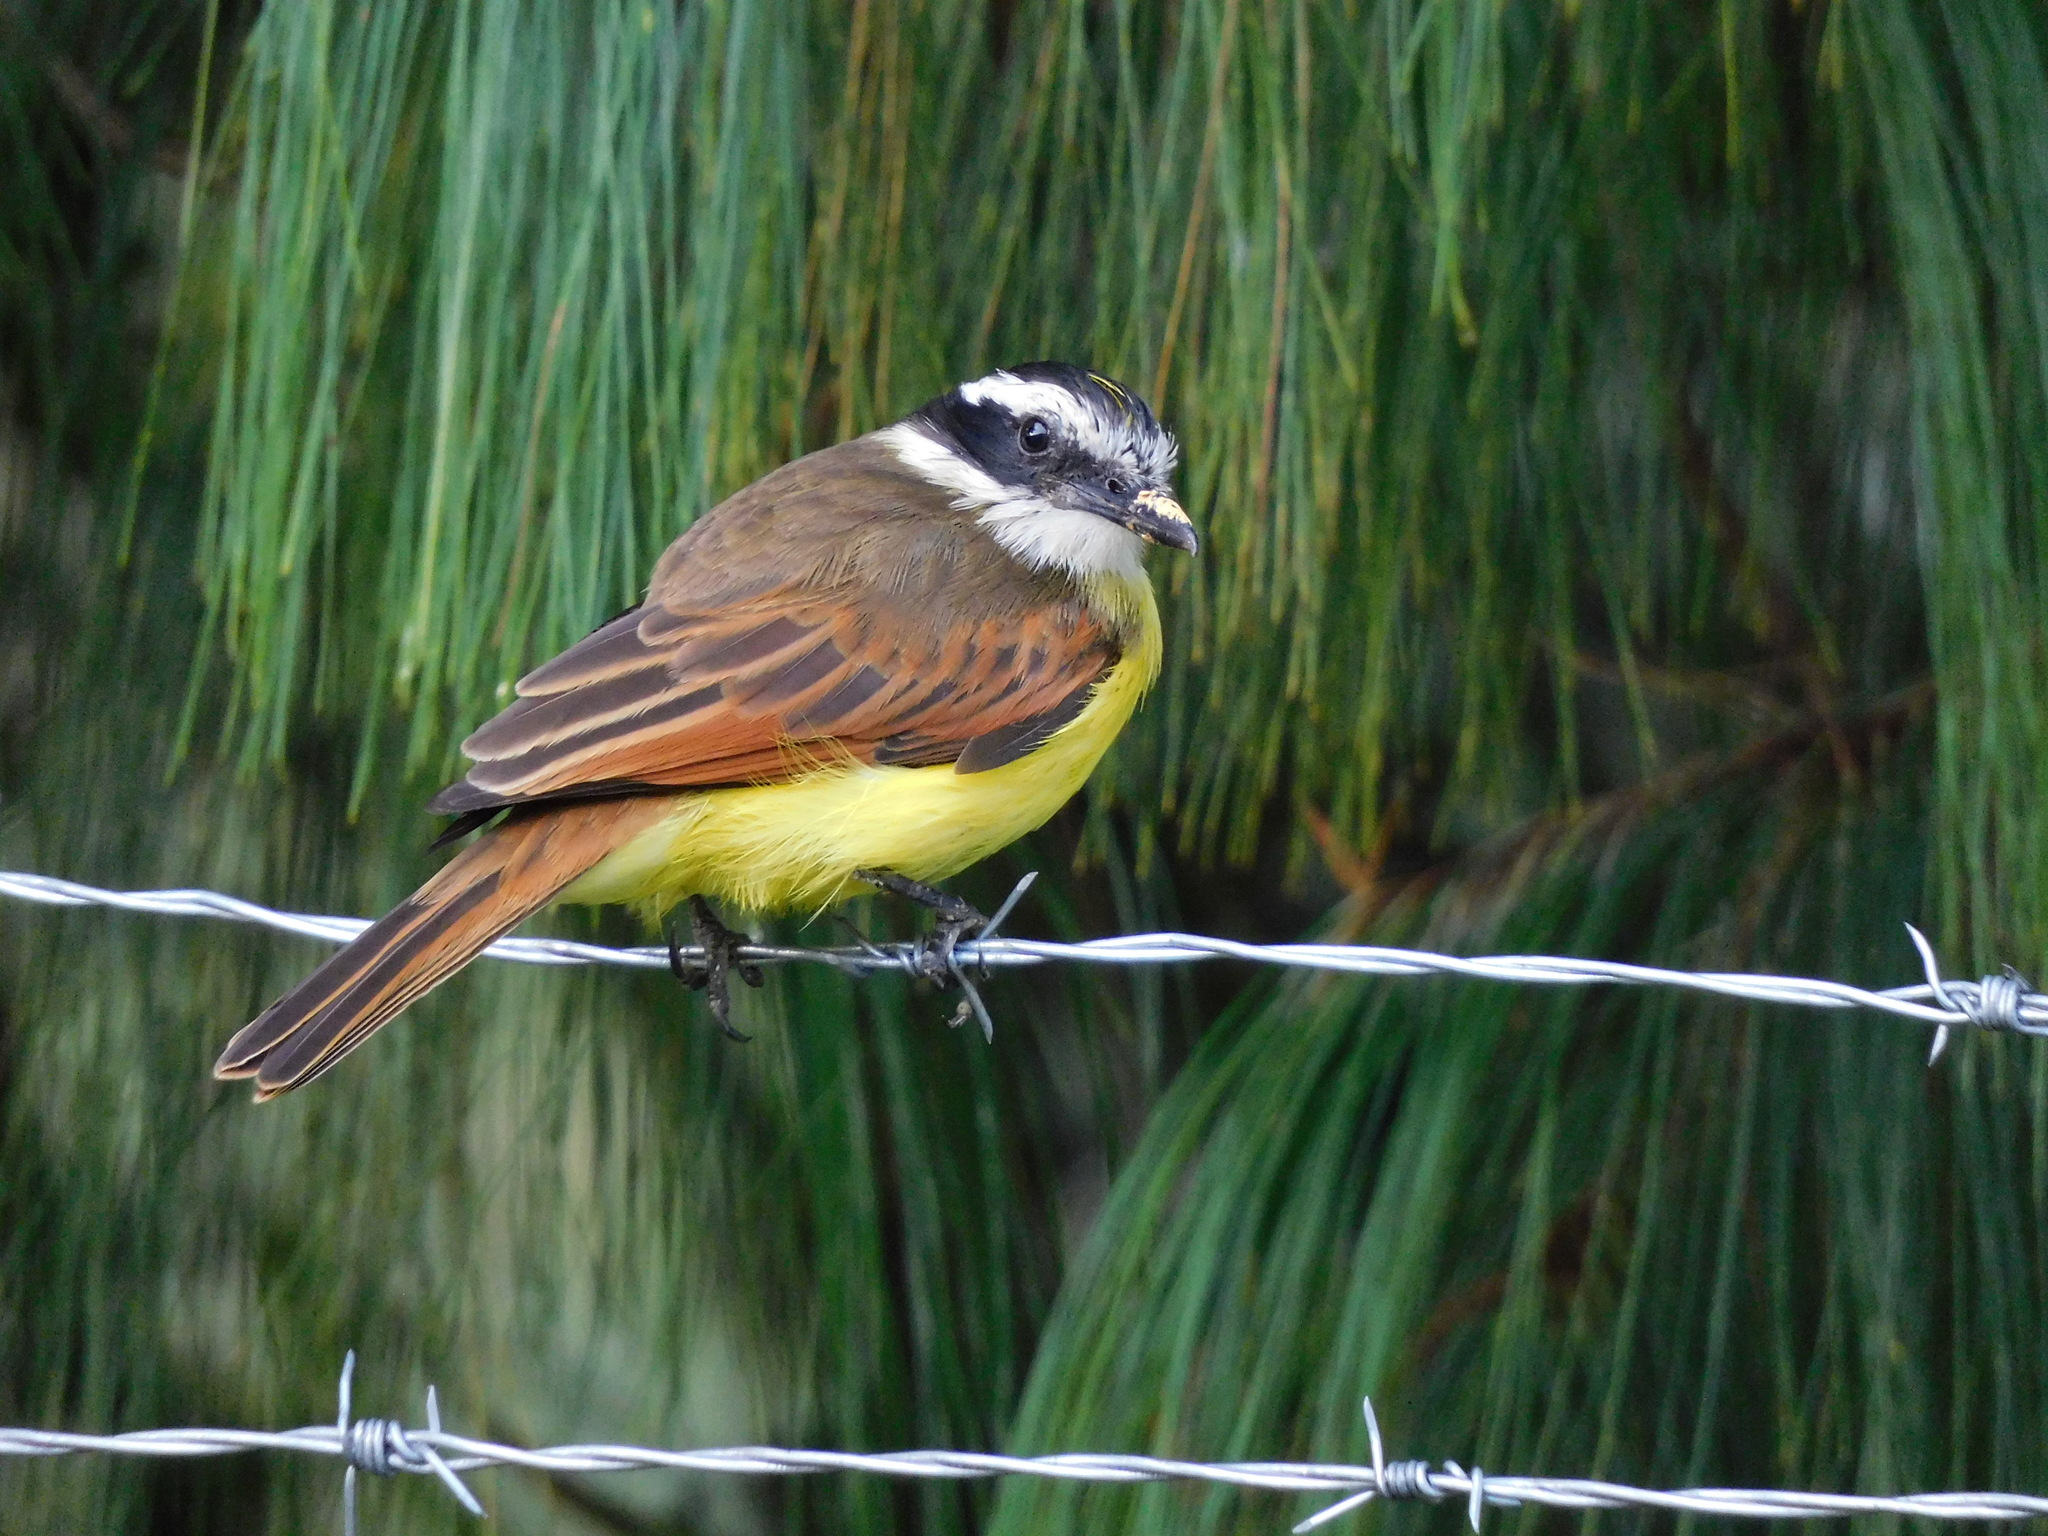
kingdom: Animalia
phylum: Chordata
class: Aves
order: Passeriformes
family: Tyrannidae
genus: Pitangus
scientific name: Pitangus sulphuratus
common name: Great kiskadee
